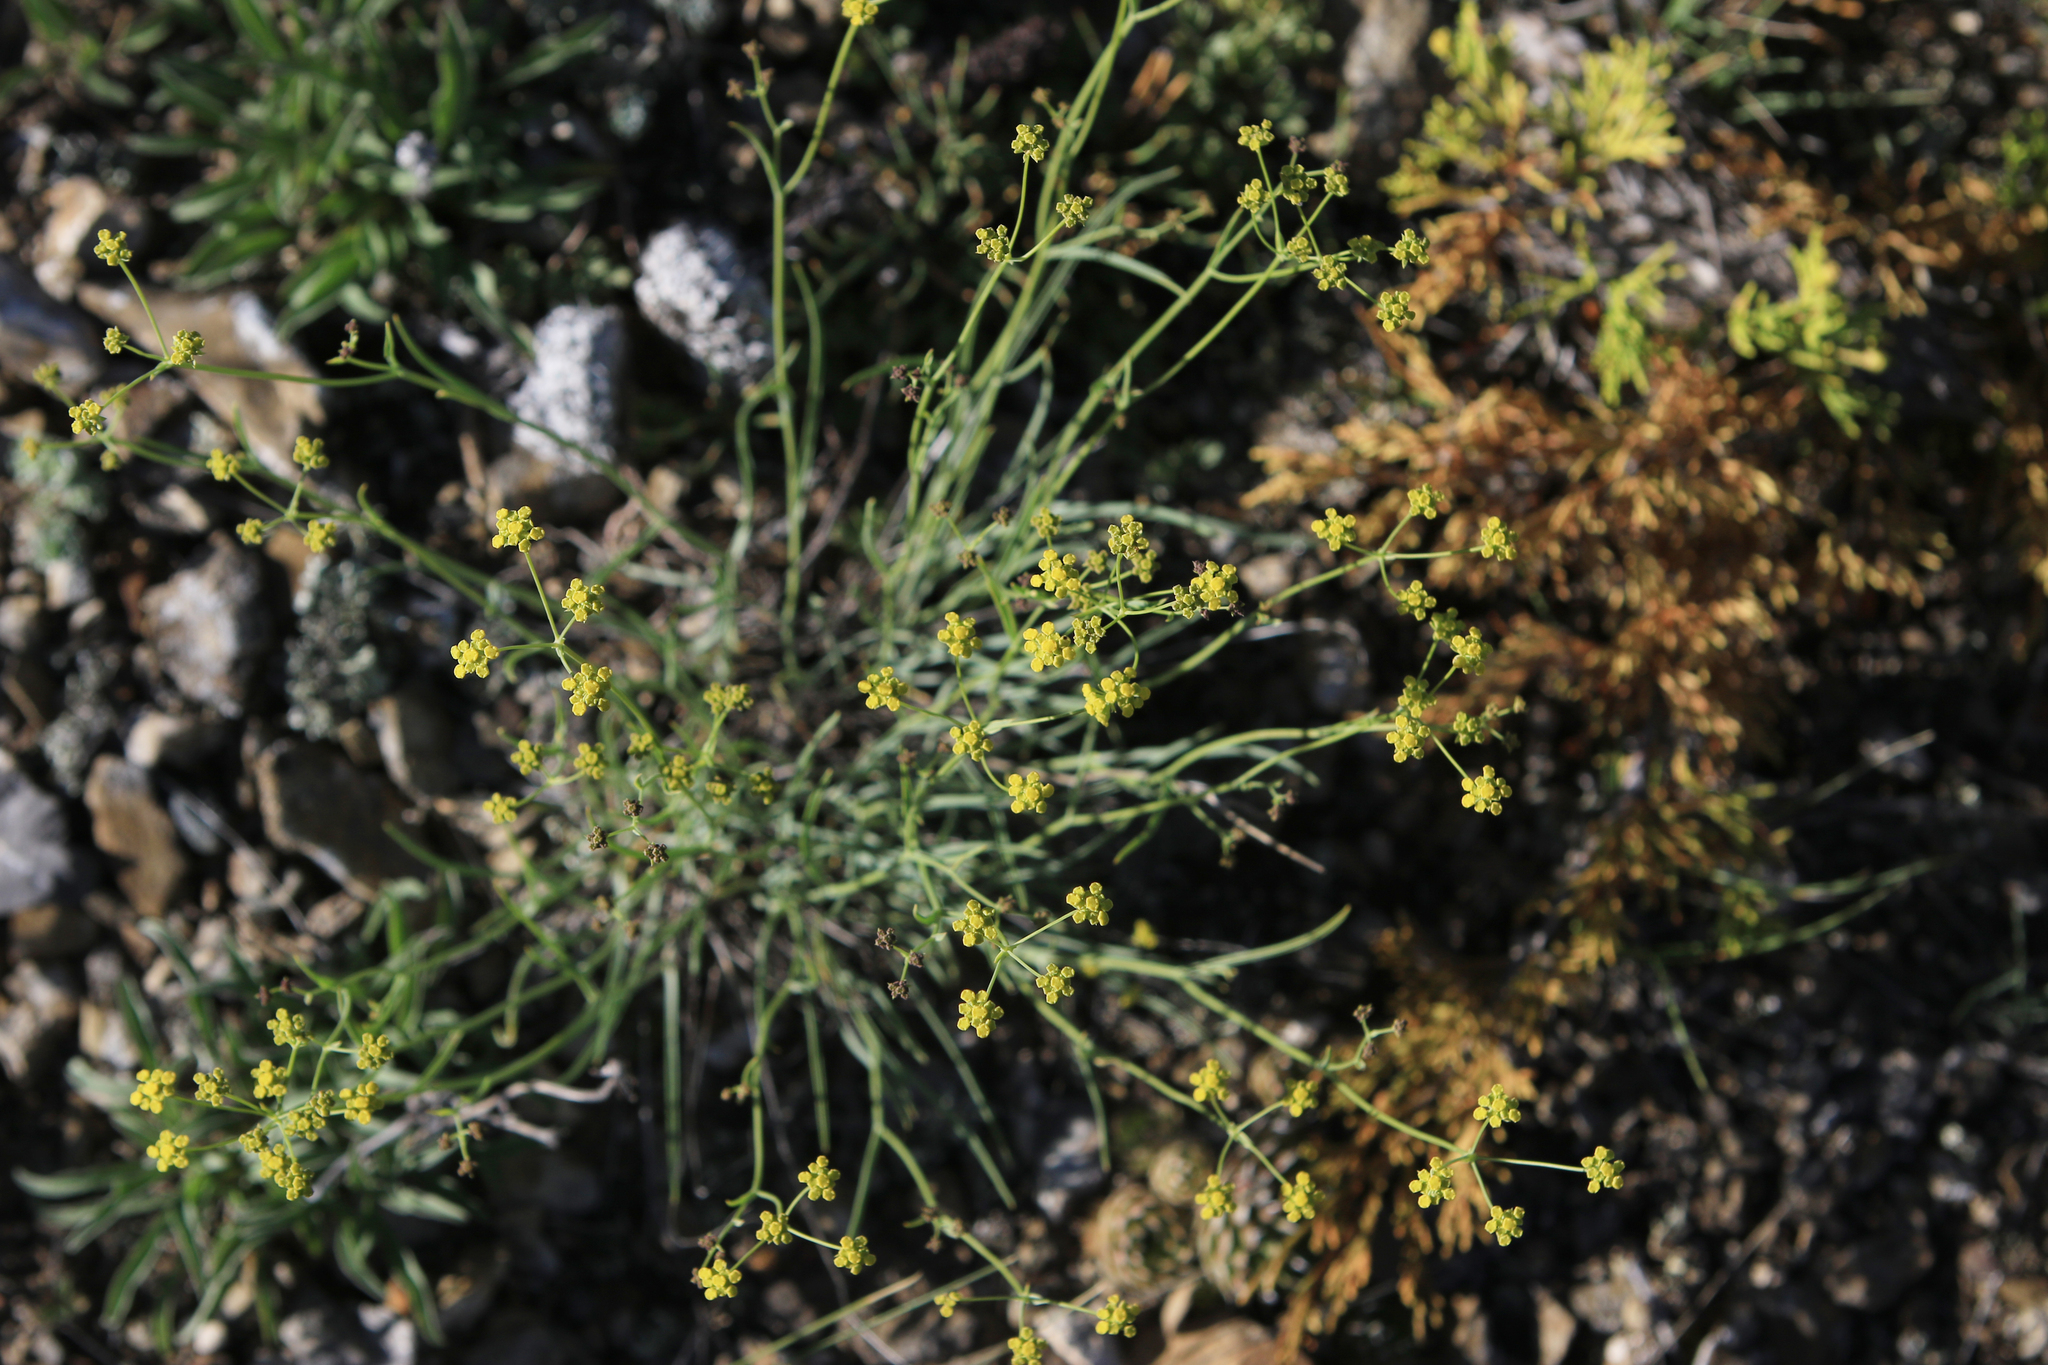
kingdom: Plantae
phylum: Tracheophyta
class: Magnoliopsida
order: Apiales
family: Apiaceae
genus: Bupleurum
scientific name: Bupleurum bicaule
